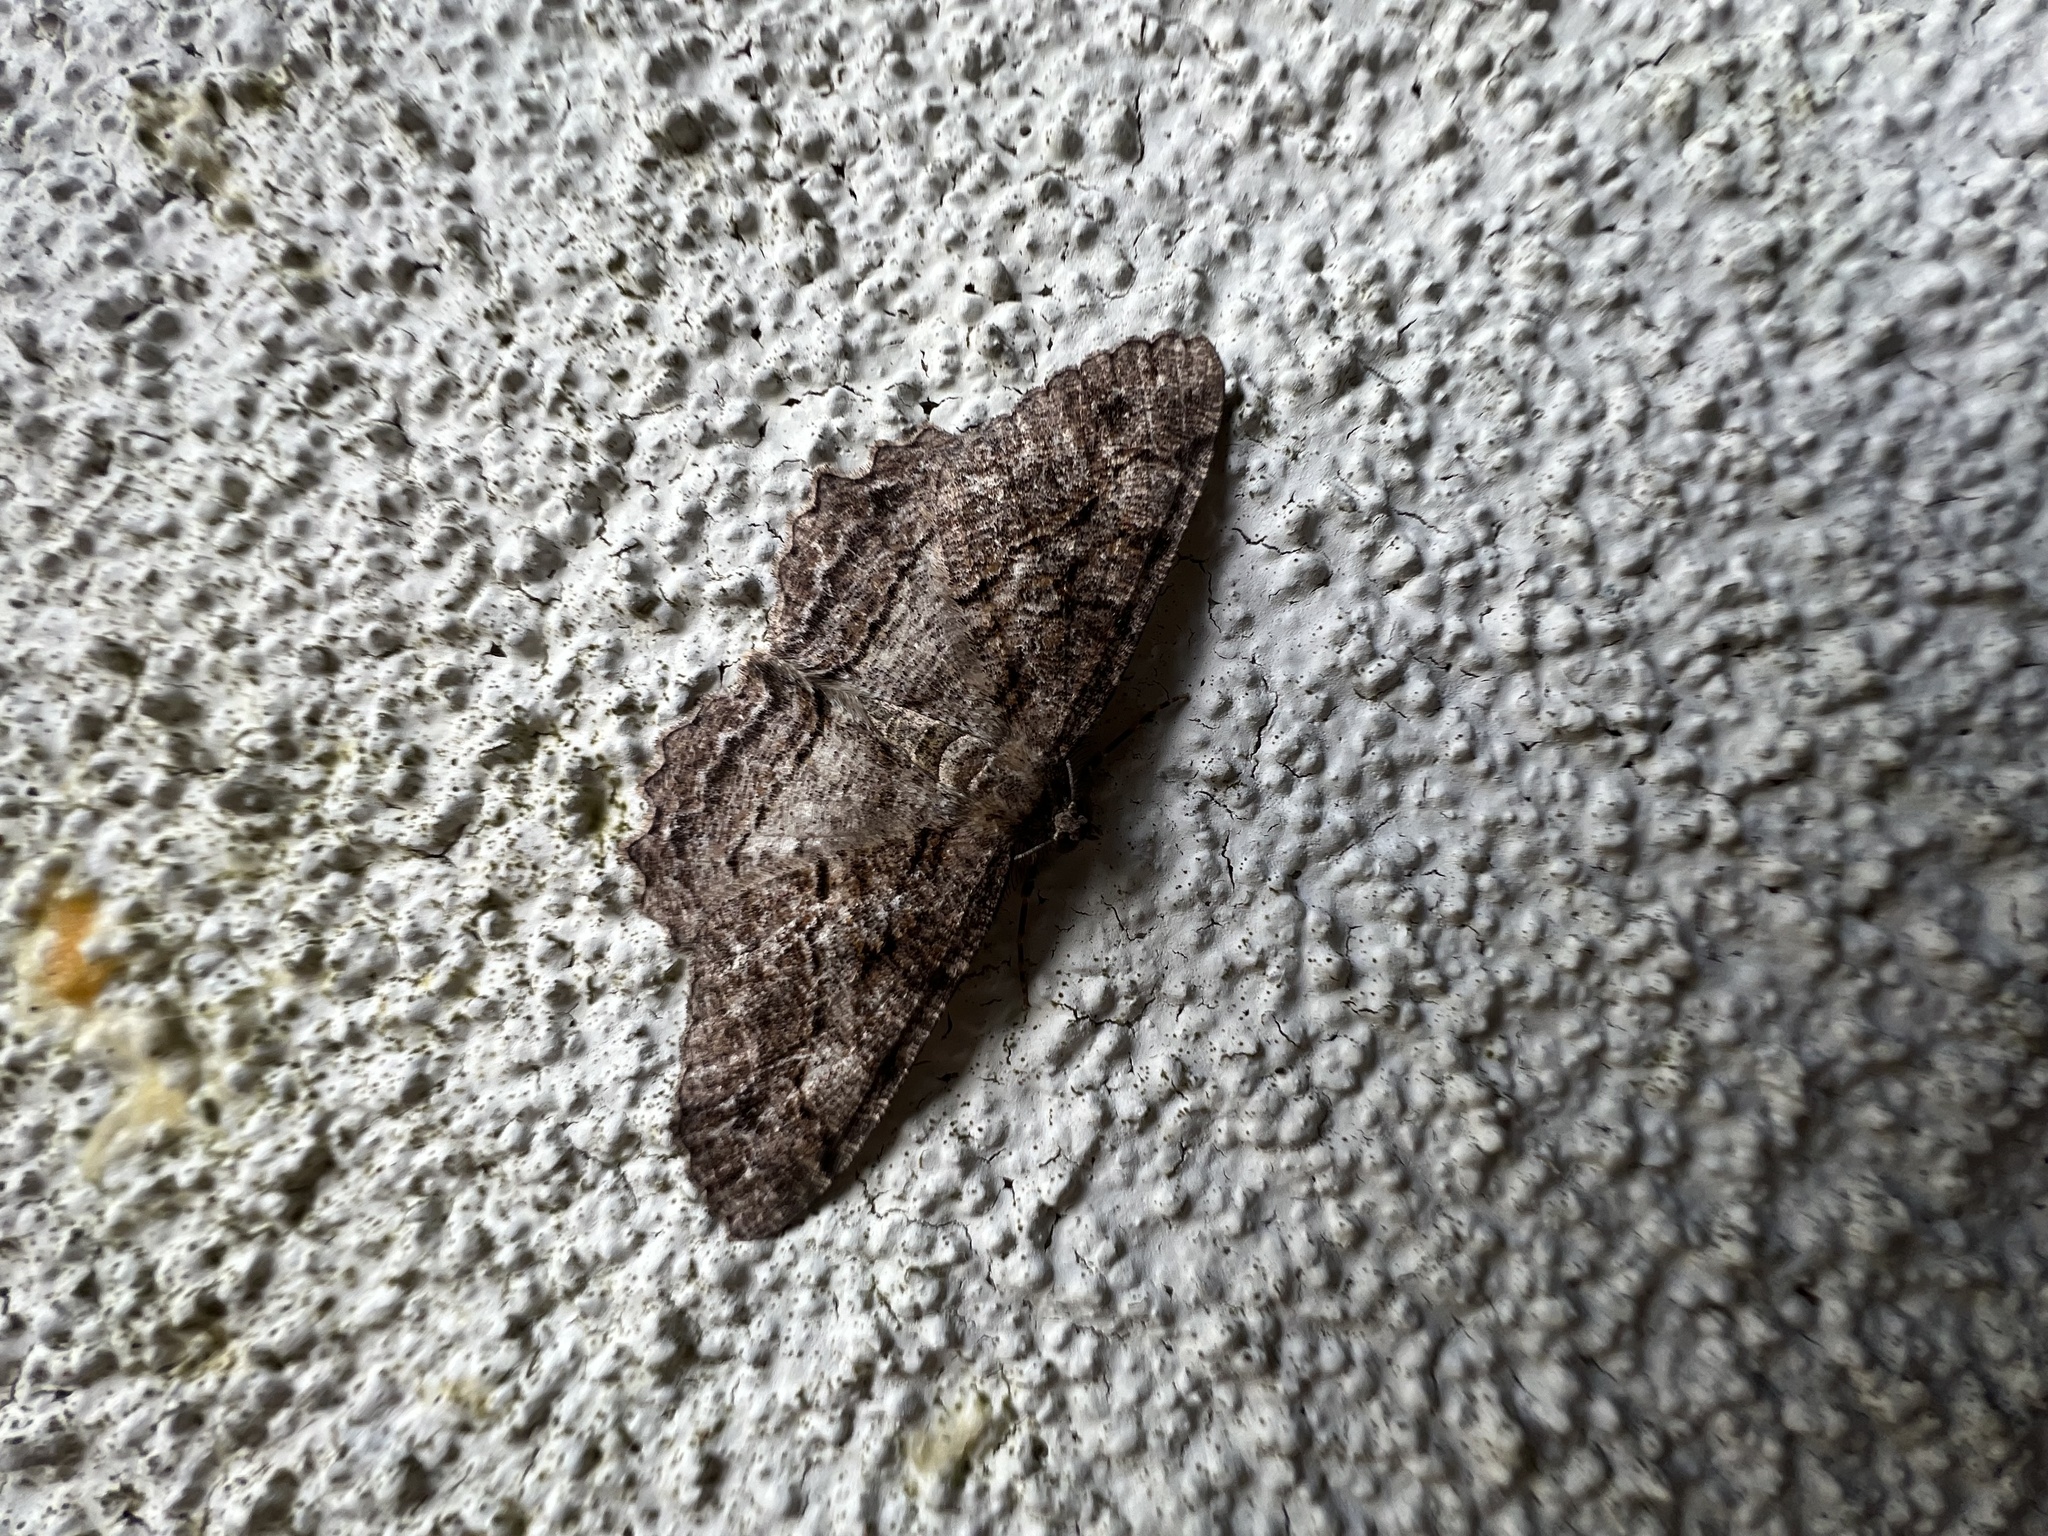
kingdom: Animalia
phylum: Arthropoda
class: Insecta
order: Lepidoptera
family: Geometridae
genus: Neoalcis
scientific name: Neoalcis californiaria
